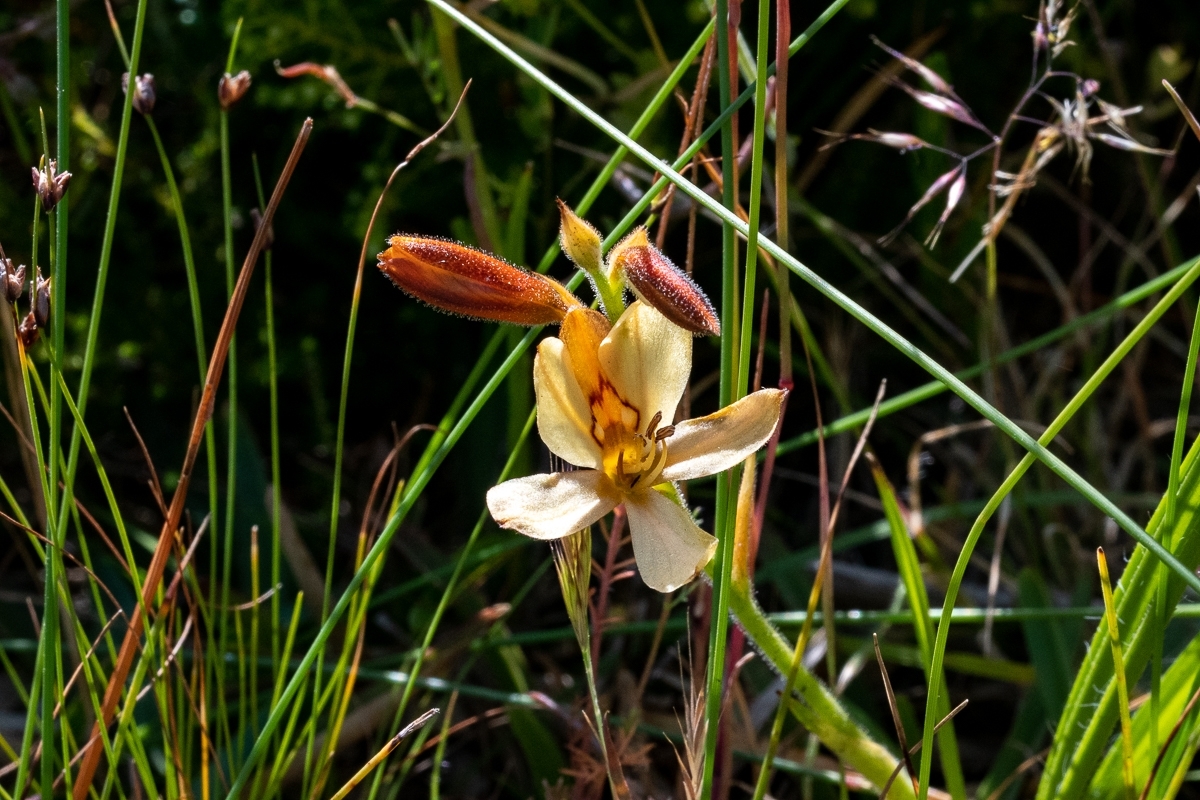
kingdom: Plantae
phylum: Tracheophyta
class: Liliopsida
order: Commelinales
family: Haemodoraceae
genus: Wachendorfia
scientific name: Wachendorfia paniculata
